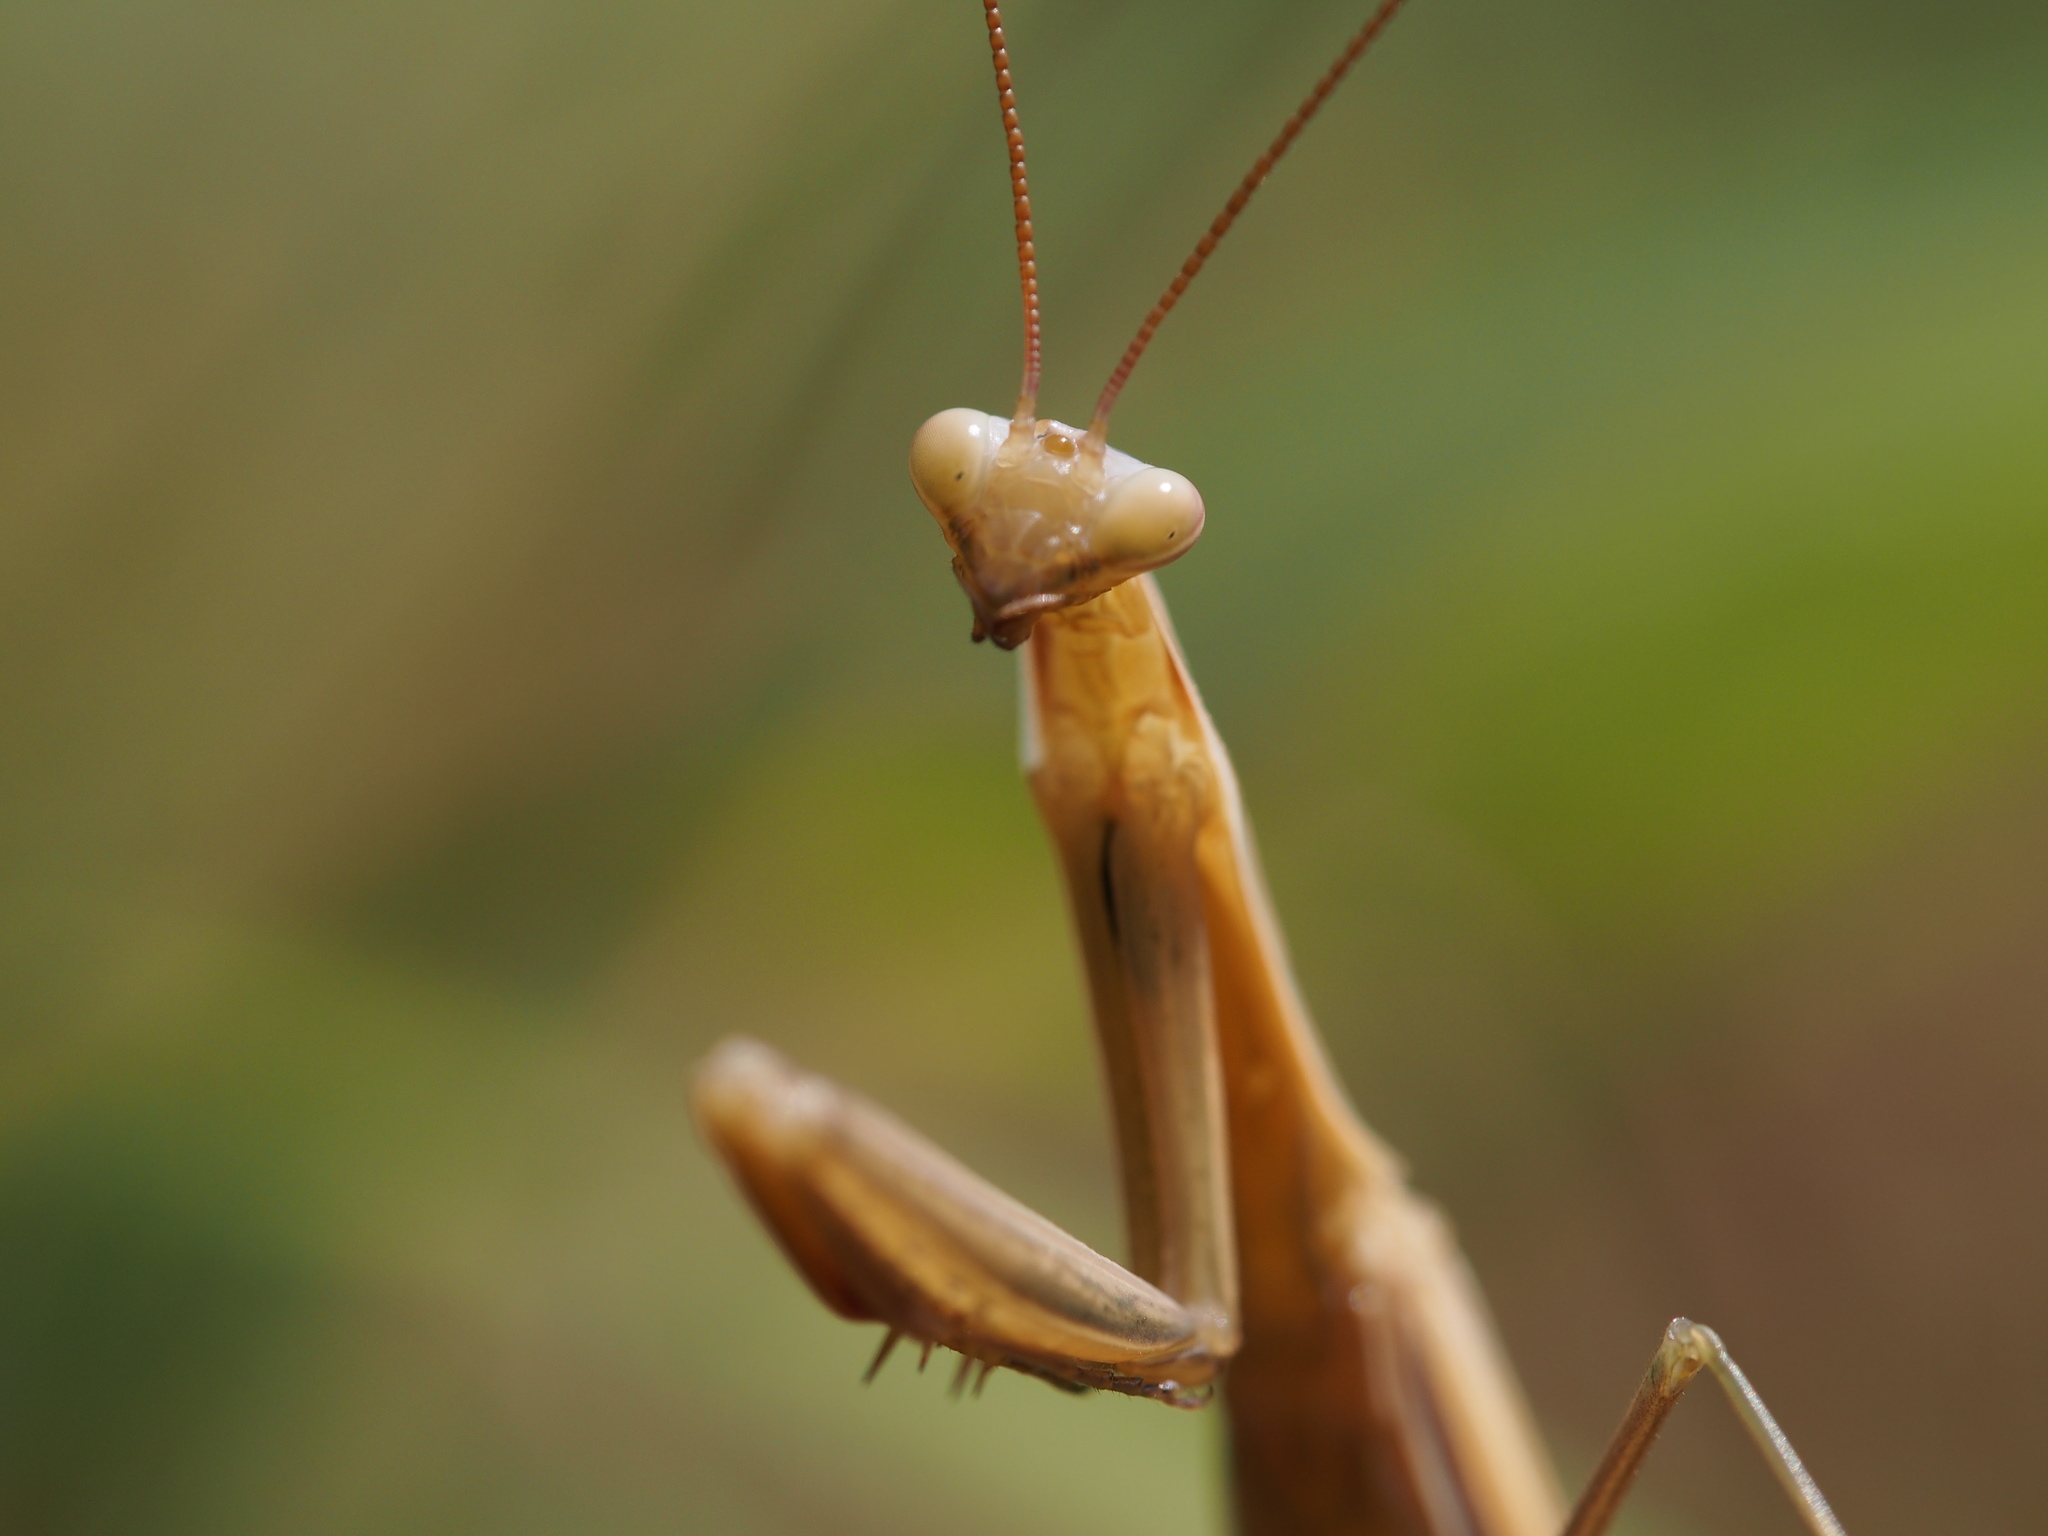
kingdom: Animalia
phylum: Arthropoda
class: Insecta
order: Mantodea
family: Mantidae
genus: Mantis
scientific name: Mantis religiosa
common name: Praying mantis
